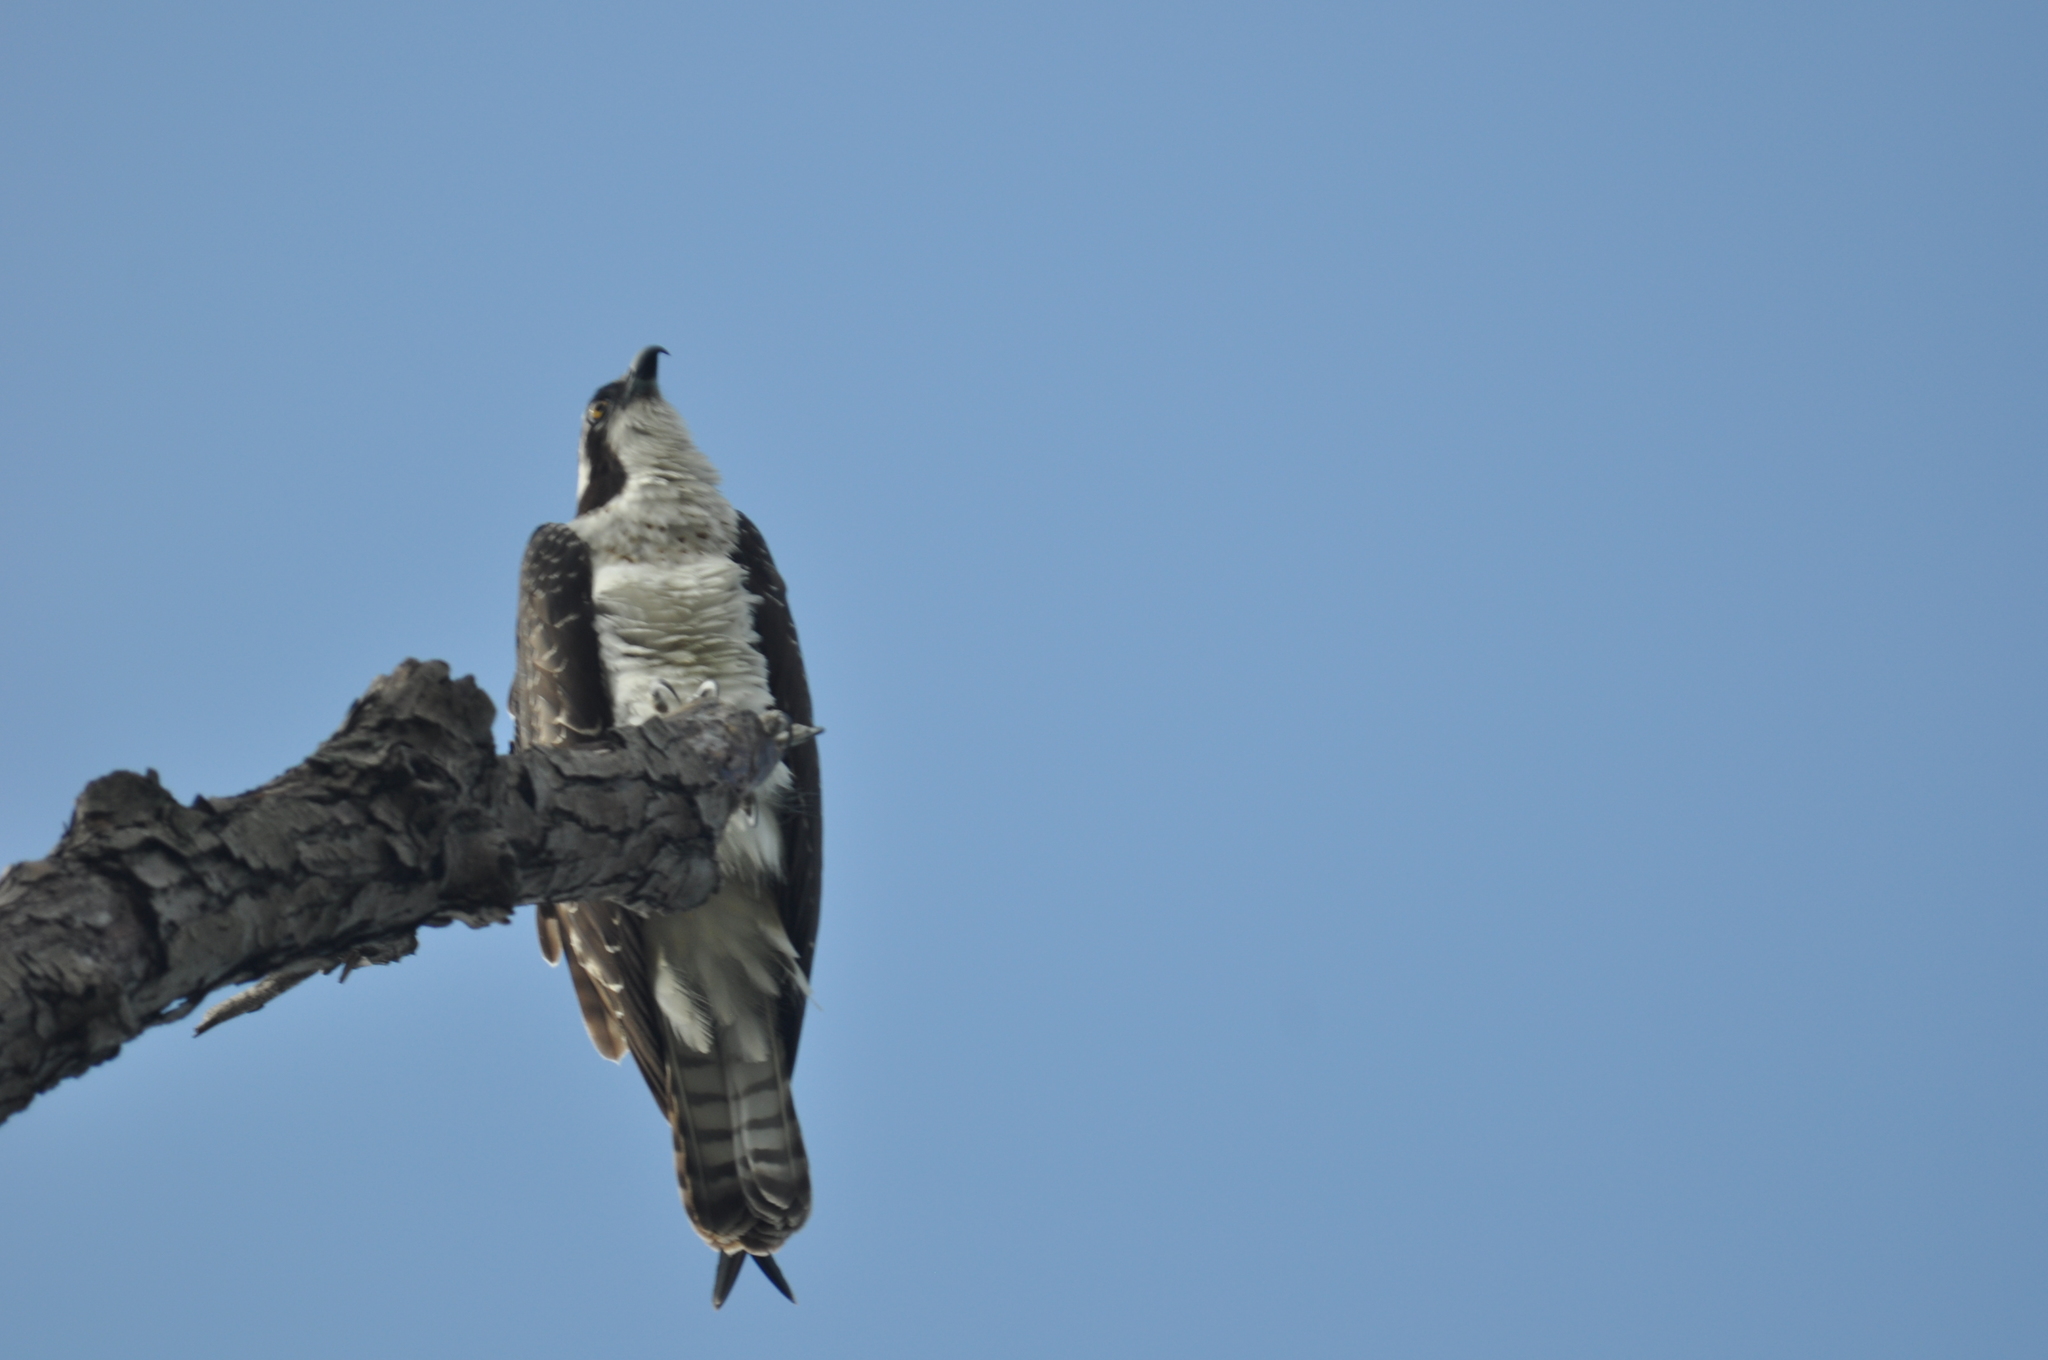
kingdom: Animalia
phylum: Chordata
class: Aves
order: Accipitriformes
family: Pandionidae
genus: Pandion
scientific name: Pandion haliaetus
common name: Osprey
